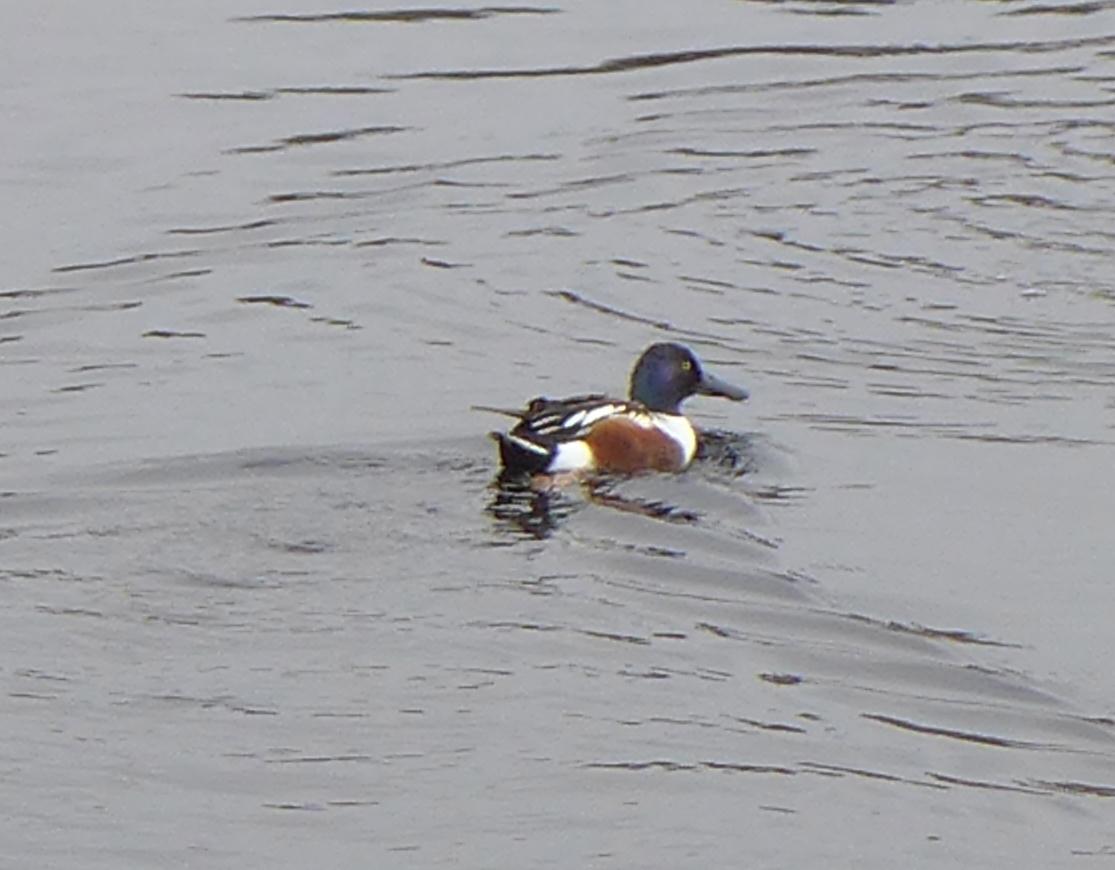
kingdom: Animalia
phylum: Chordata
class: Aves
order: Anseriformes
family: Anatidae
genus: Spatula
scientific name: Spatula clypeata
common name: Northern shoveler
